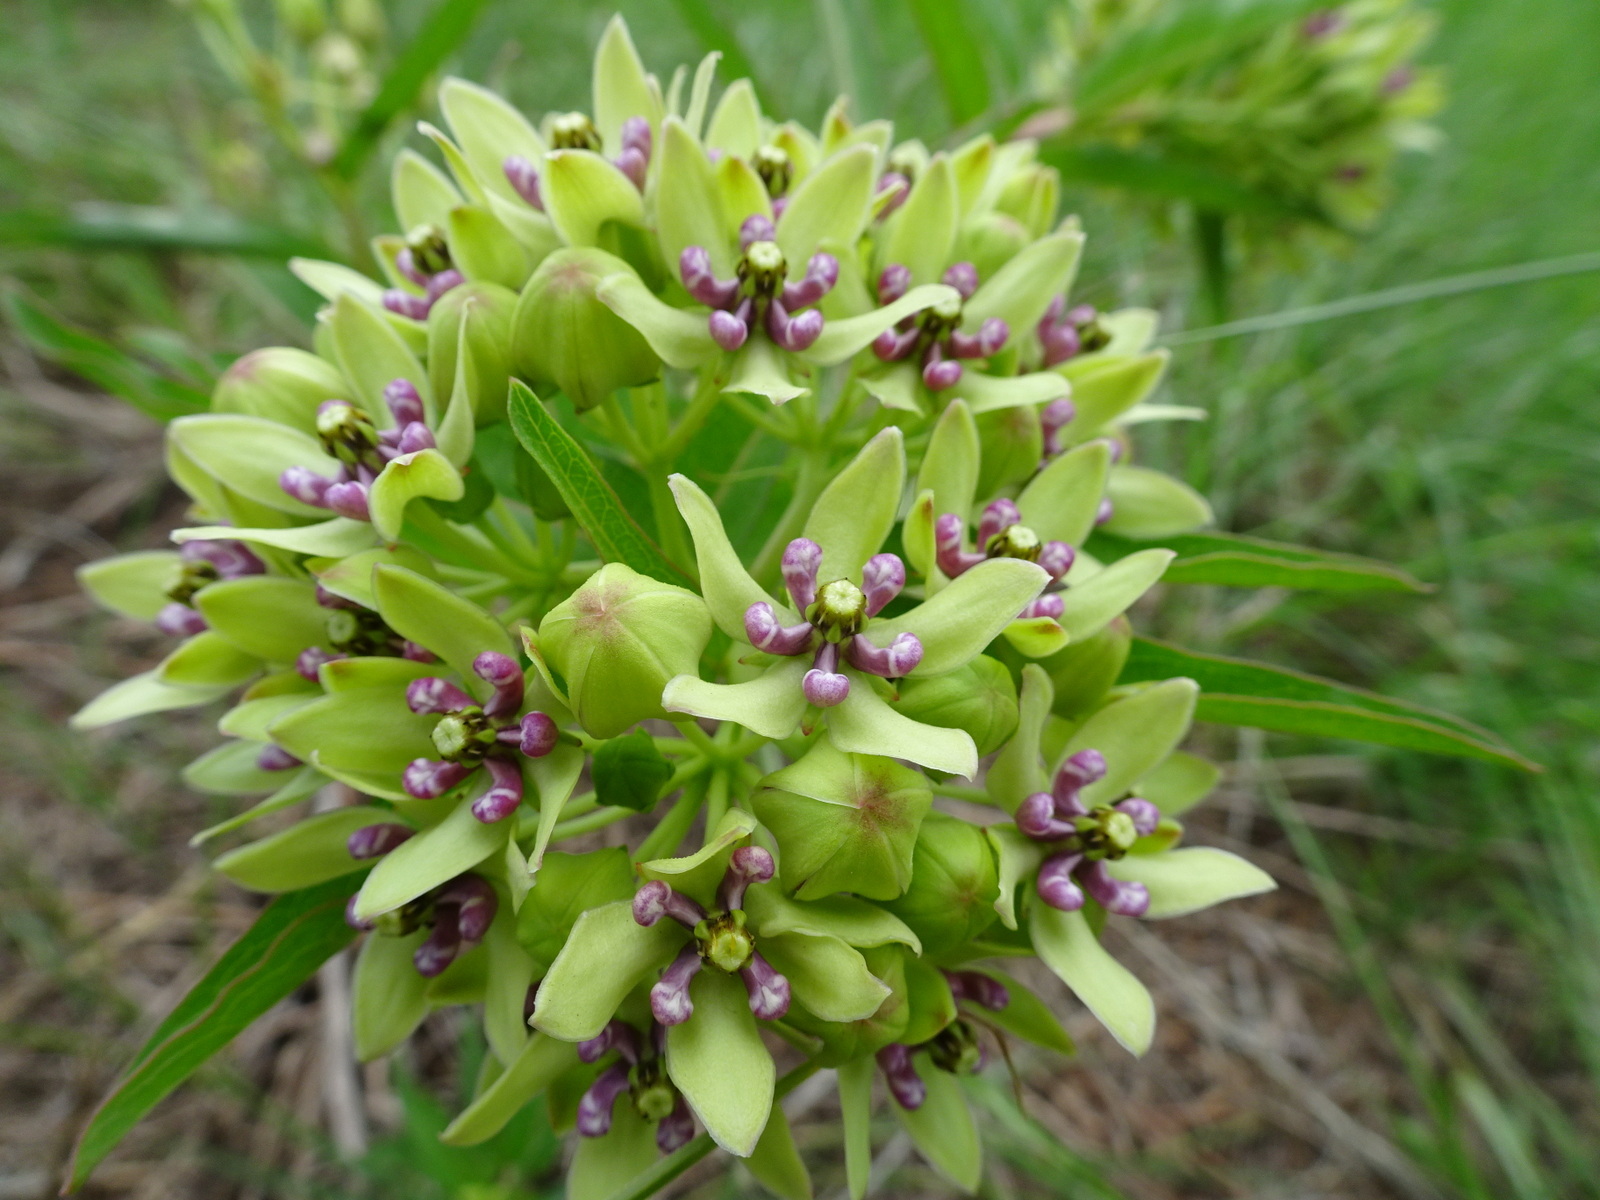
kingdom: Plantae
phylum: Tracheophyta
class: Magnoliopsida
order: Gentianales
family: Apocynaceae
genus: Asclepias
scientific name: Asclepias viridis
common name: Antelope-horns
